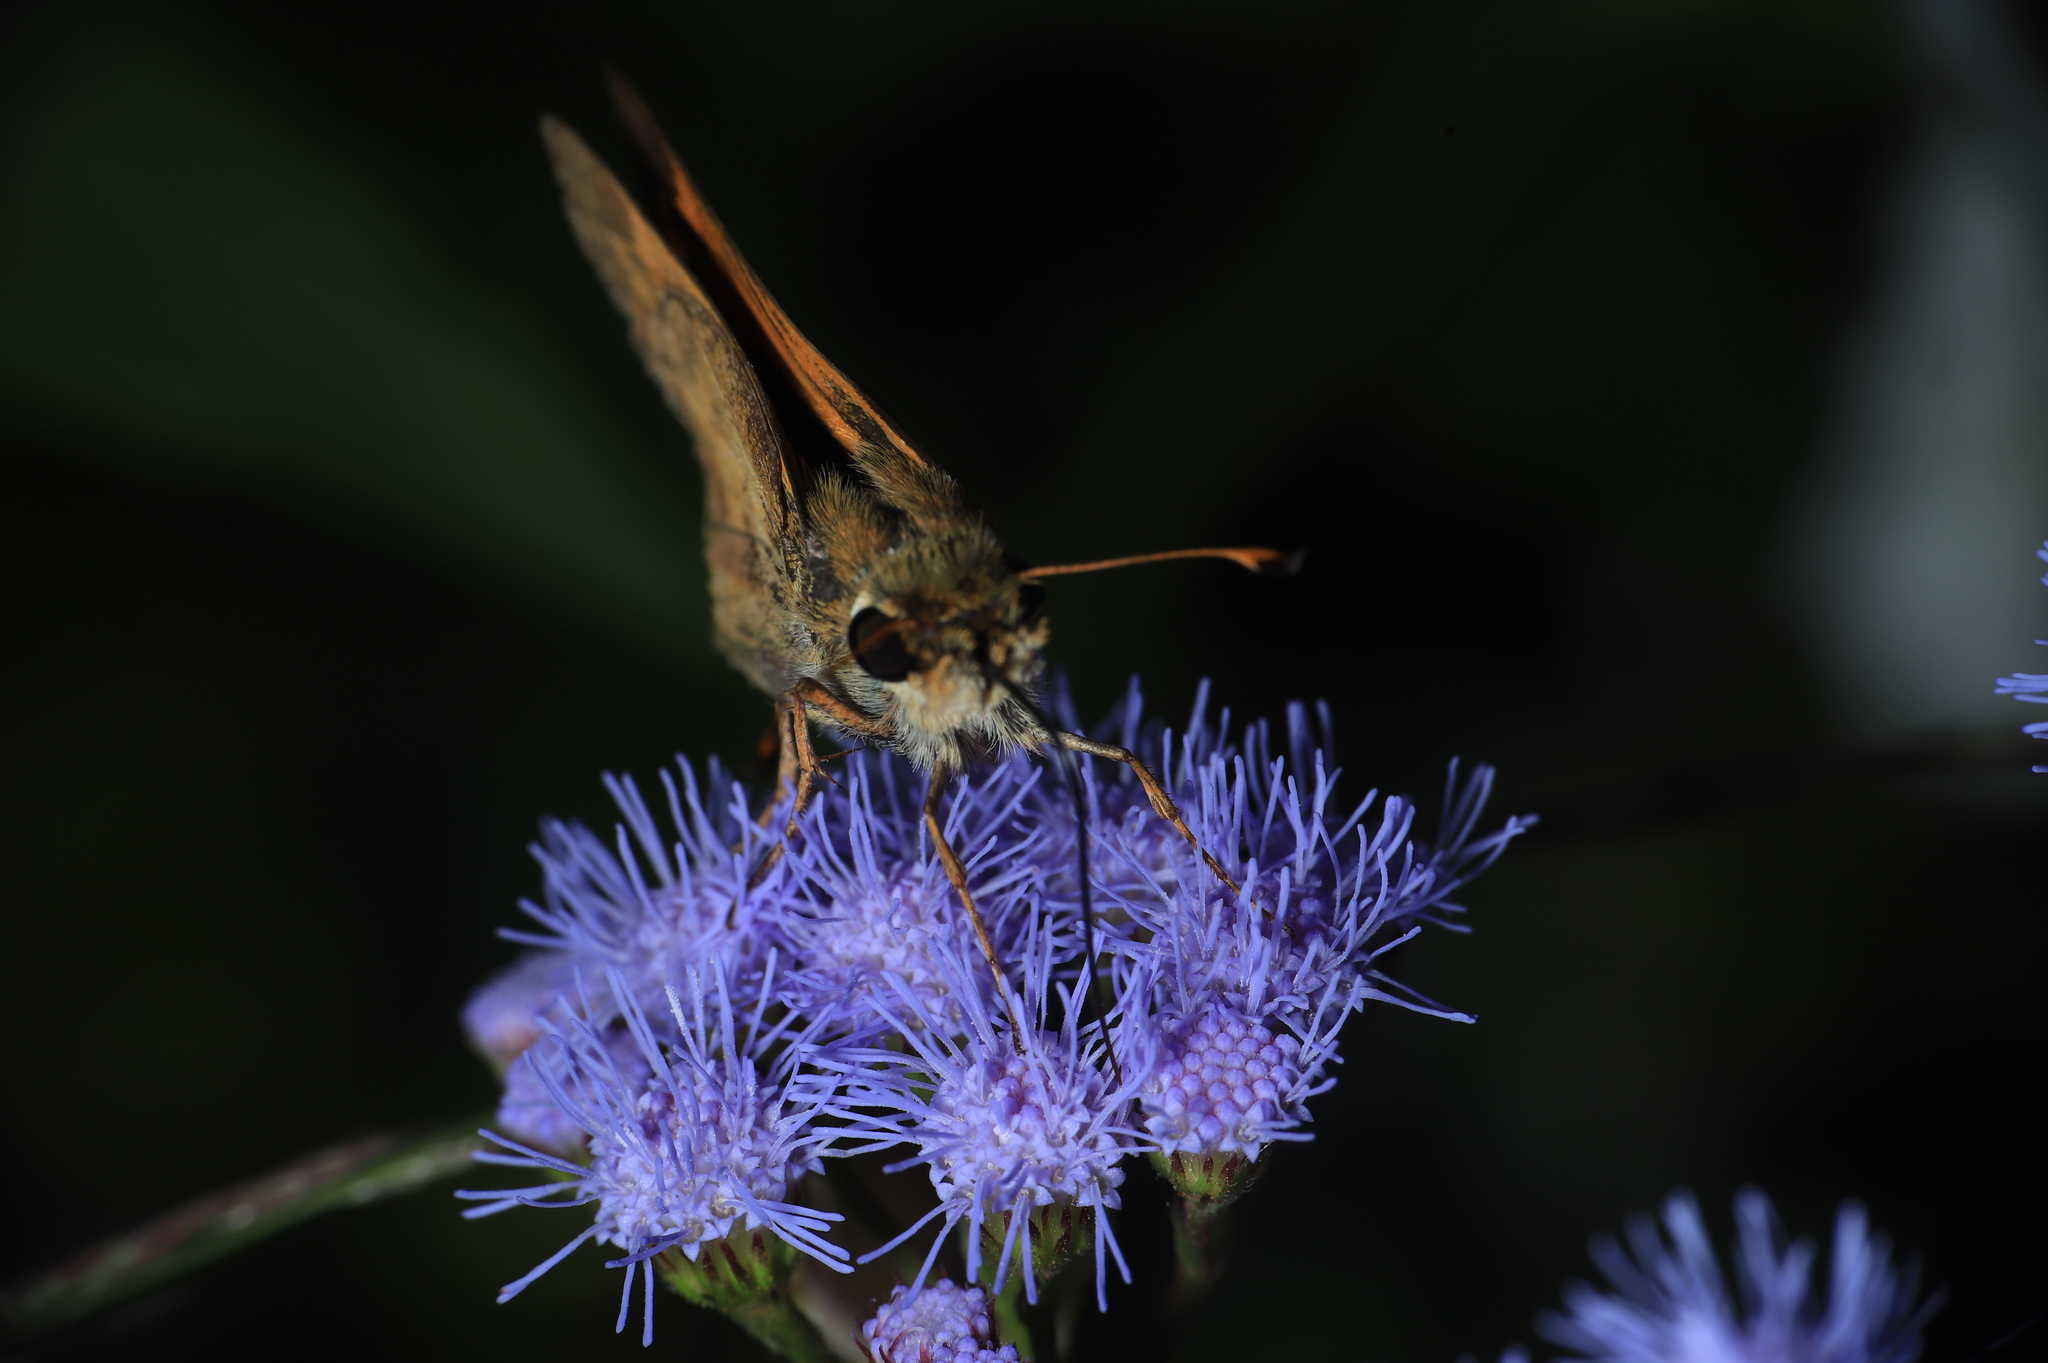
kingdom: Animalia
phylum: Arthropoda
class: Insecta
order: Lepidoptera
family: Hesperiidae
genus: Atalopedes
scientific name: Atalopedes
